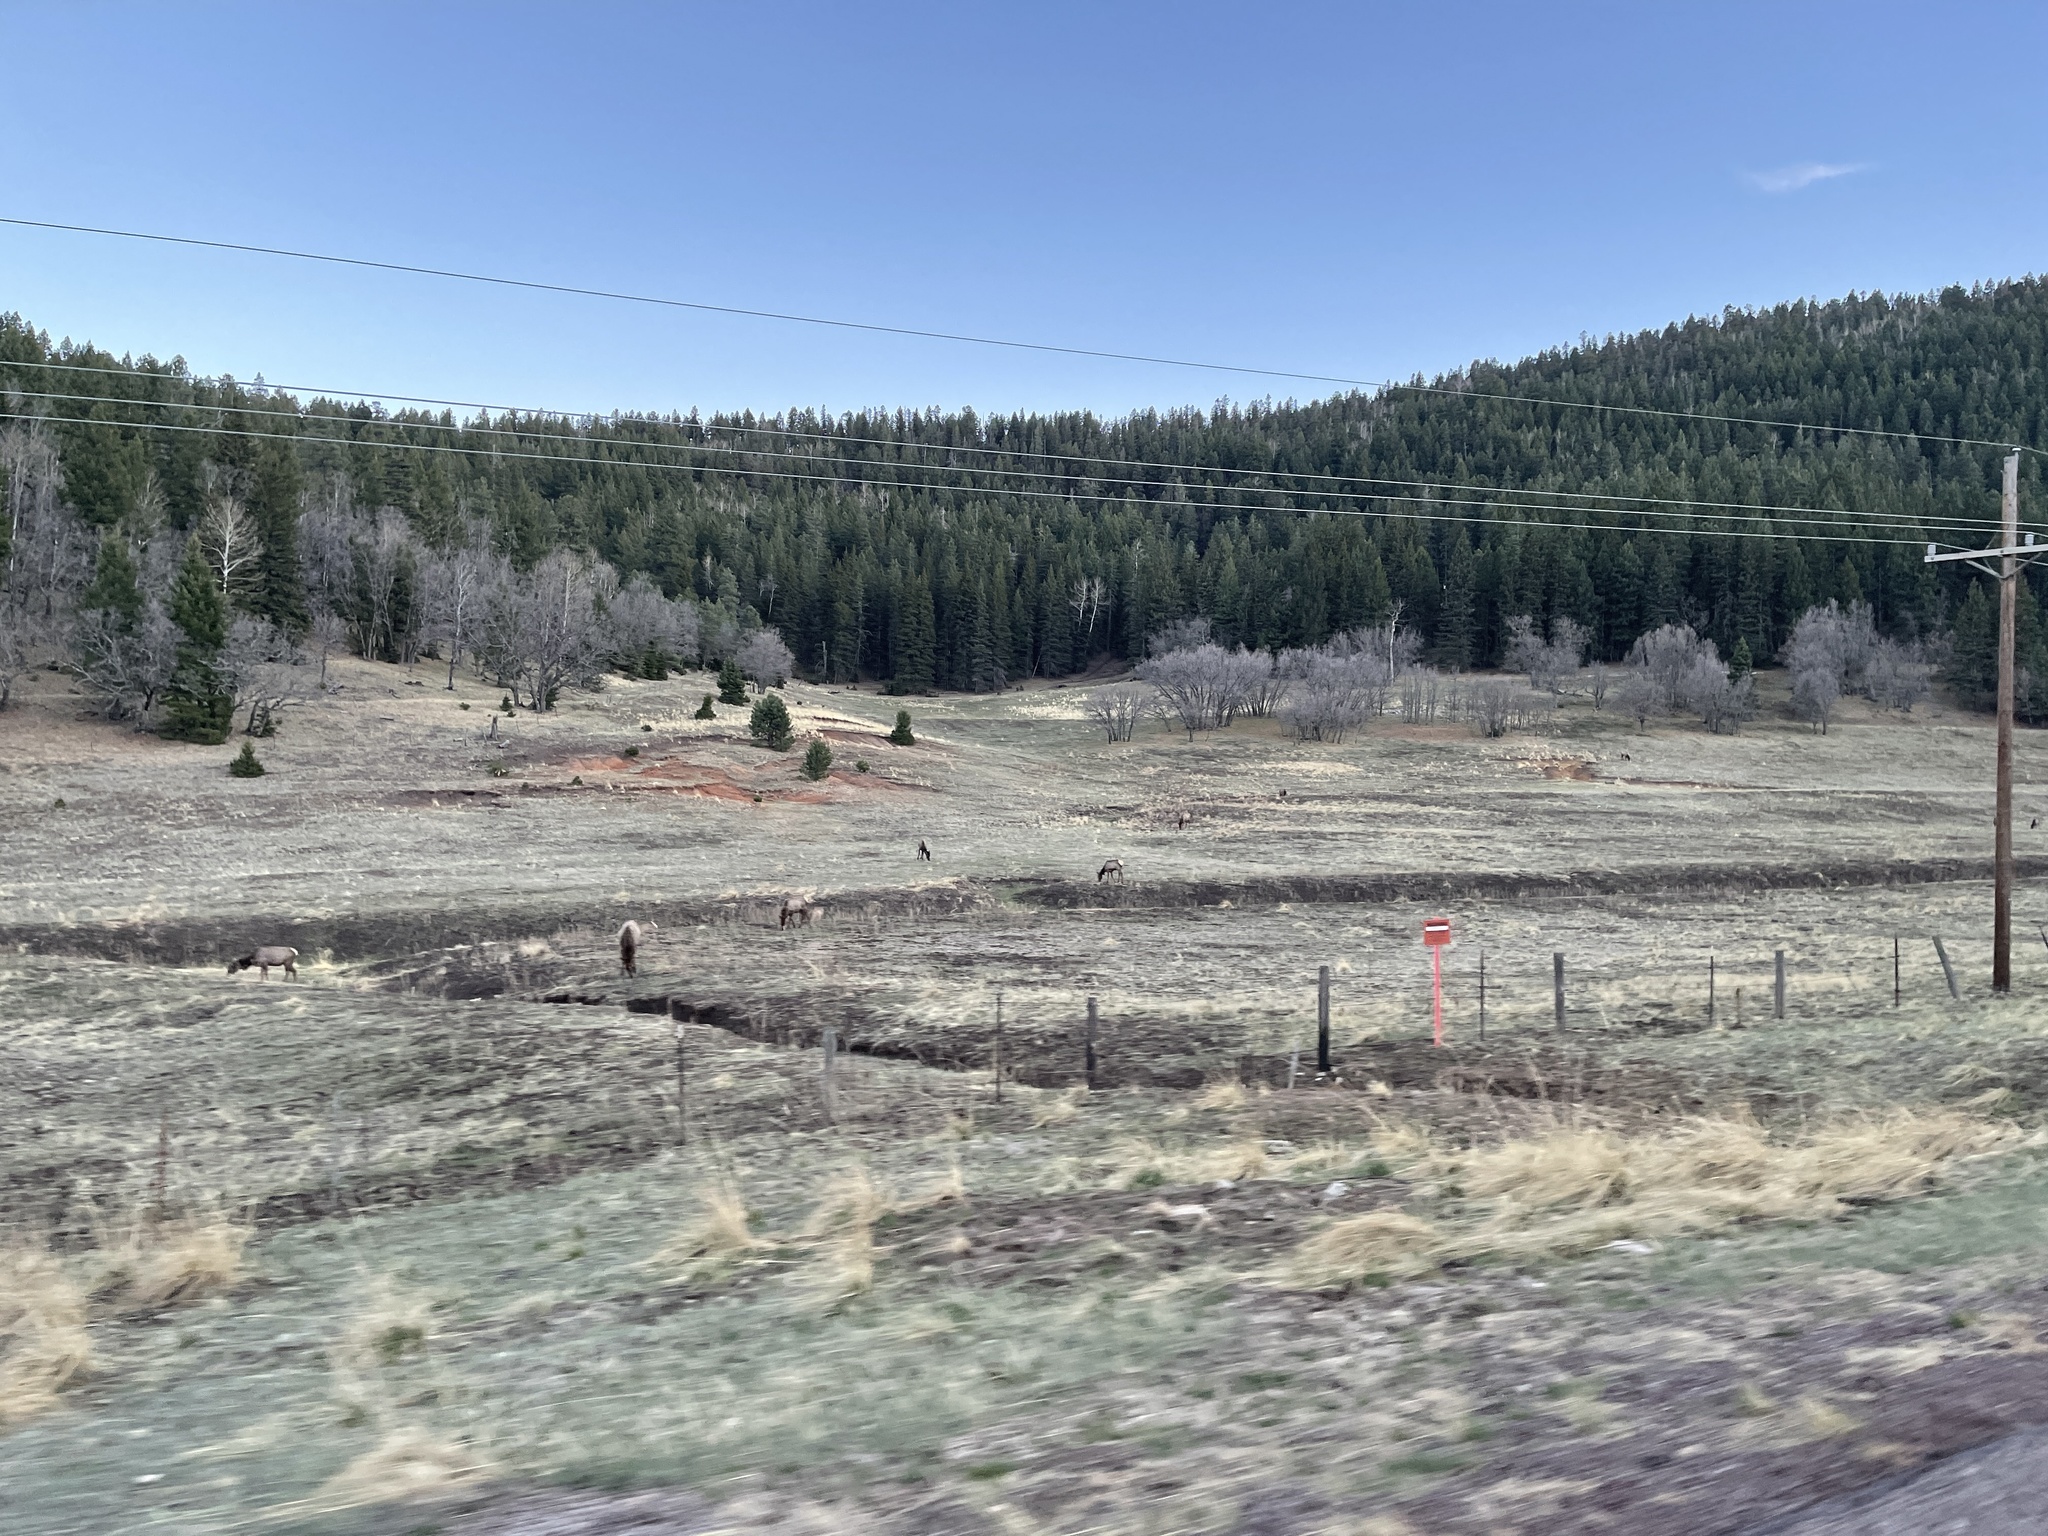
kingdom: Animalia
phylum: Chordata
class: Mammalia
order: Artiodactyla
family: Cervidae
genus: Cervus
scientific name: Cervus elaphus
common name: Red deer
